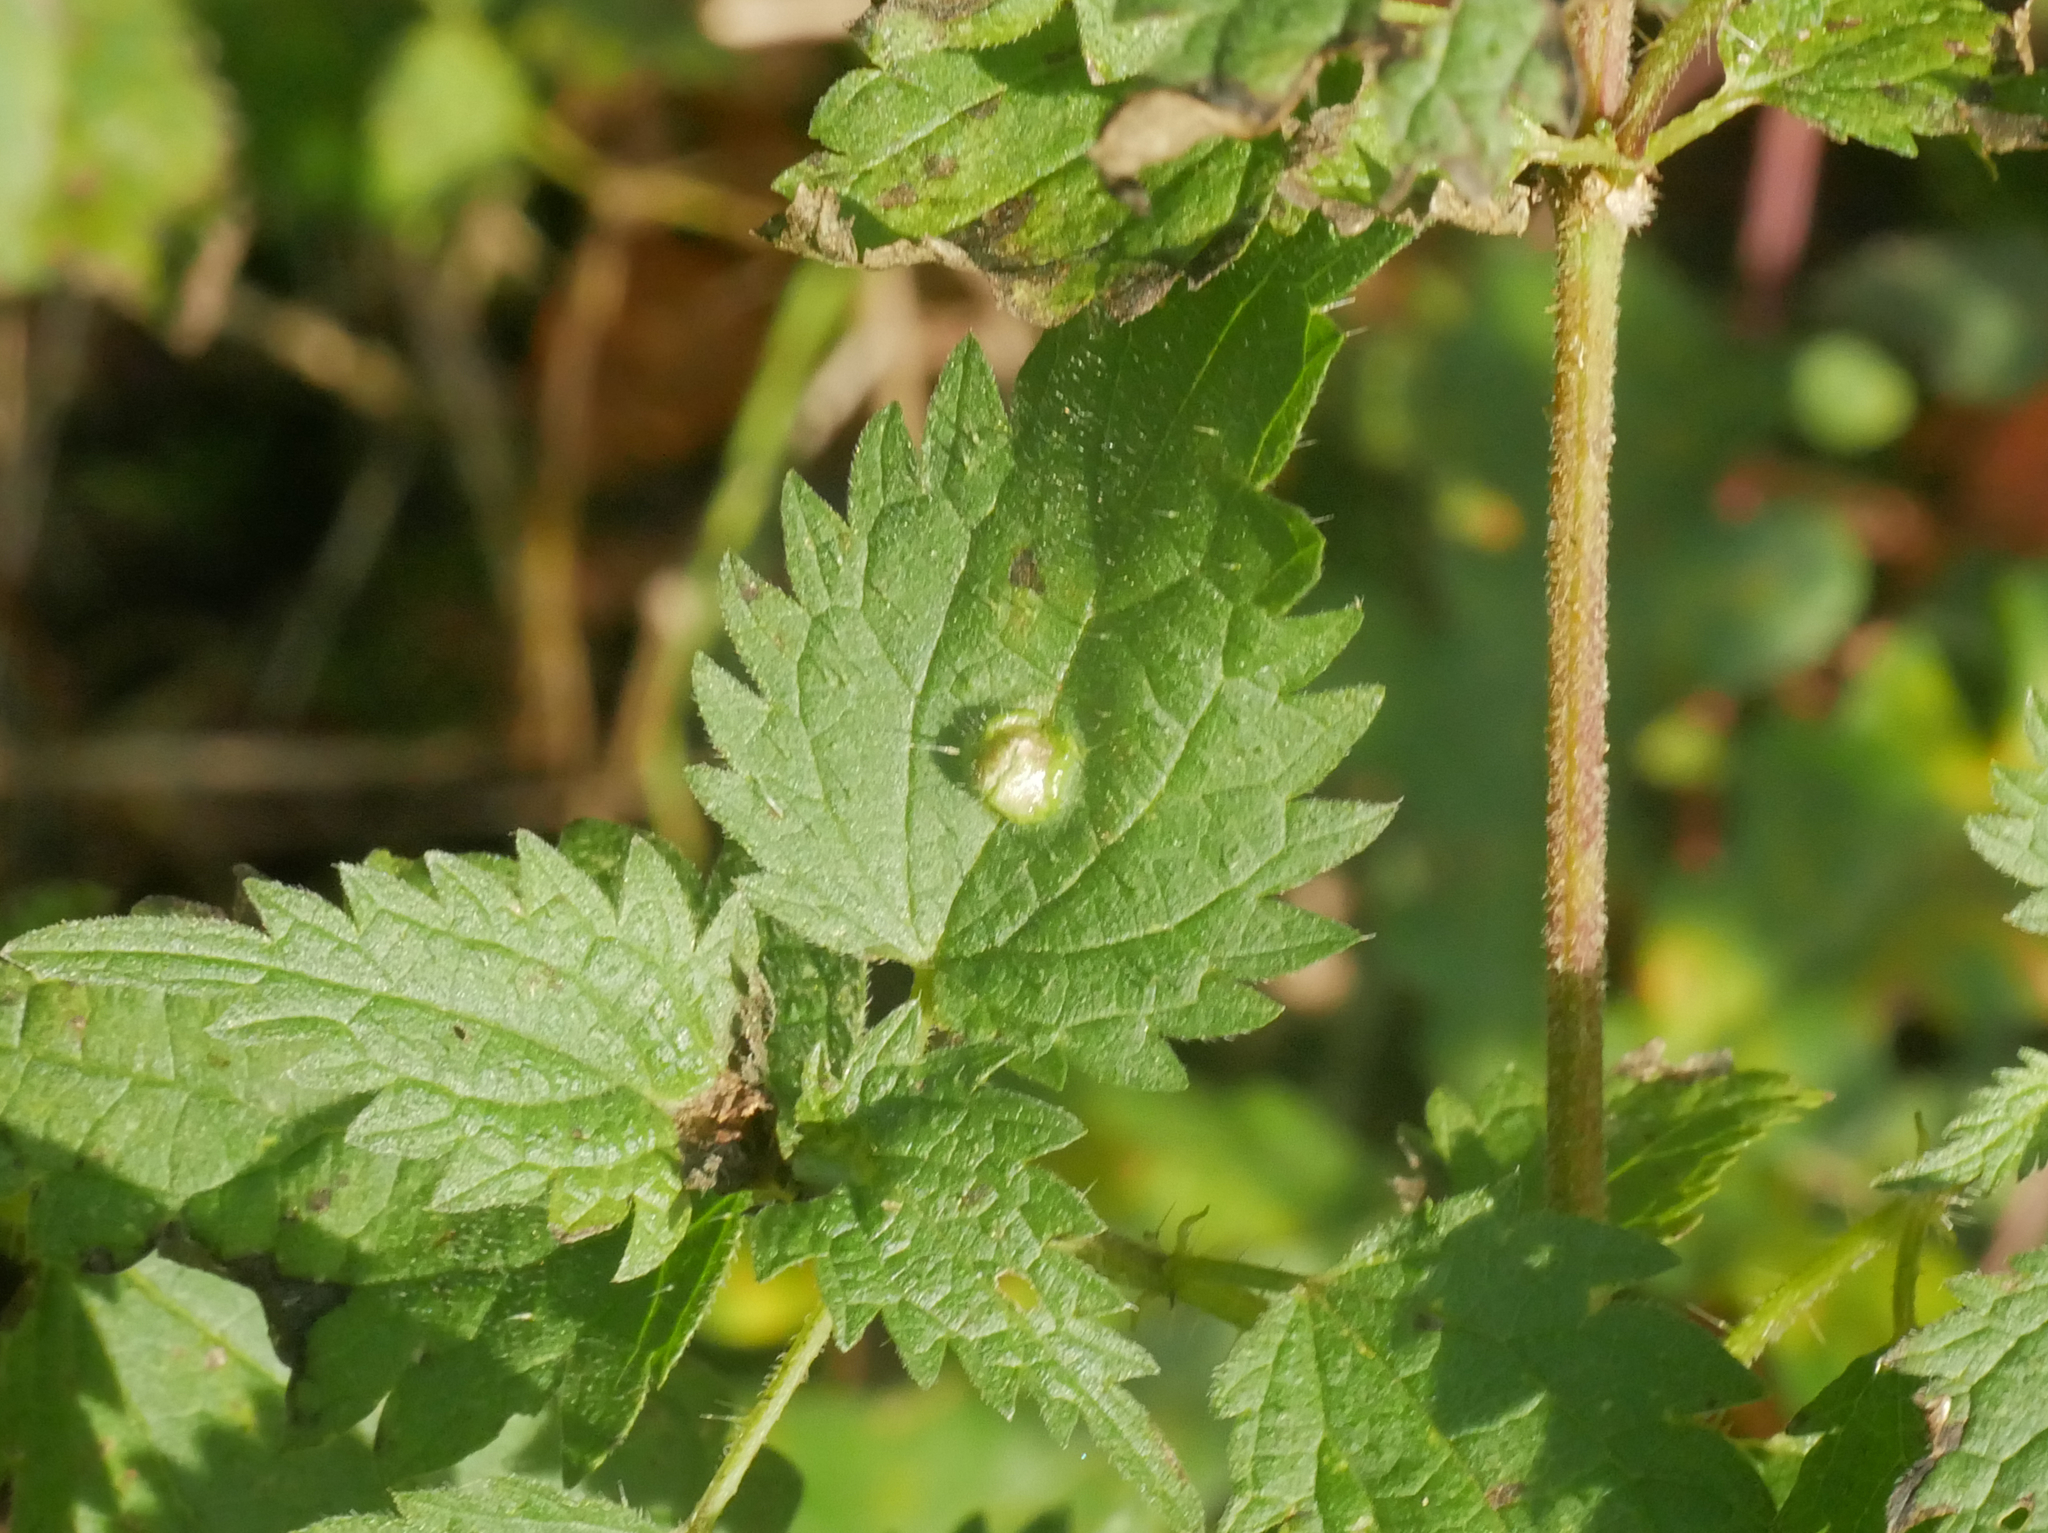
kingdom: Animalia
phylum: Arthropoda
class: Insecta
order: Diptera
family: Cecidomyiidae
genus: Dasineura
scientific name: Dasineura urticae
